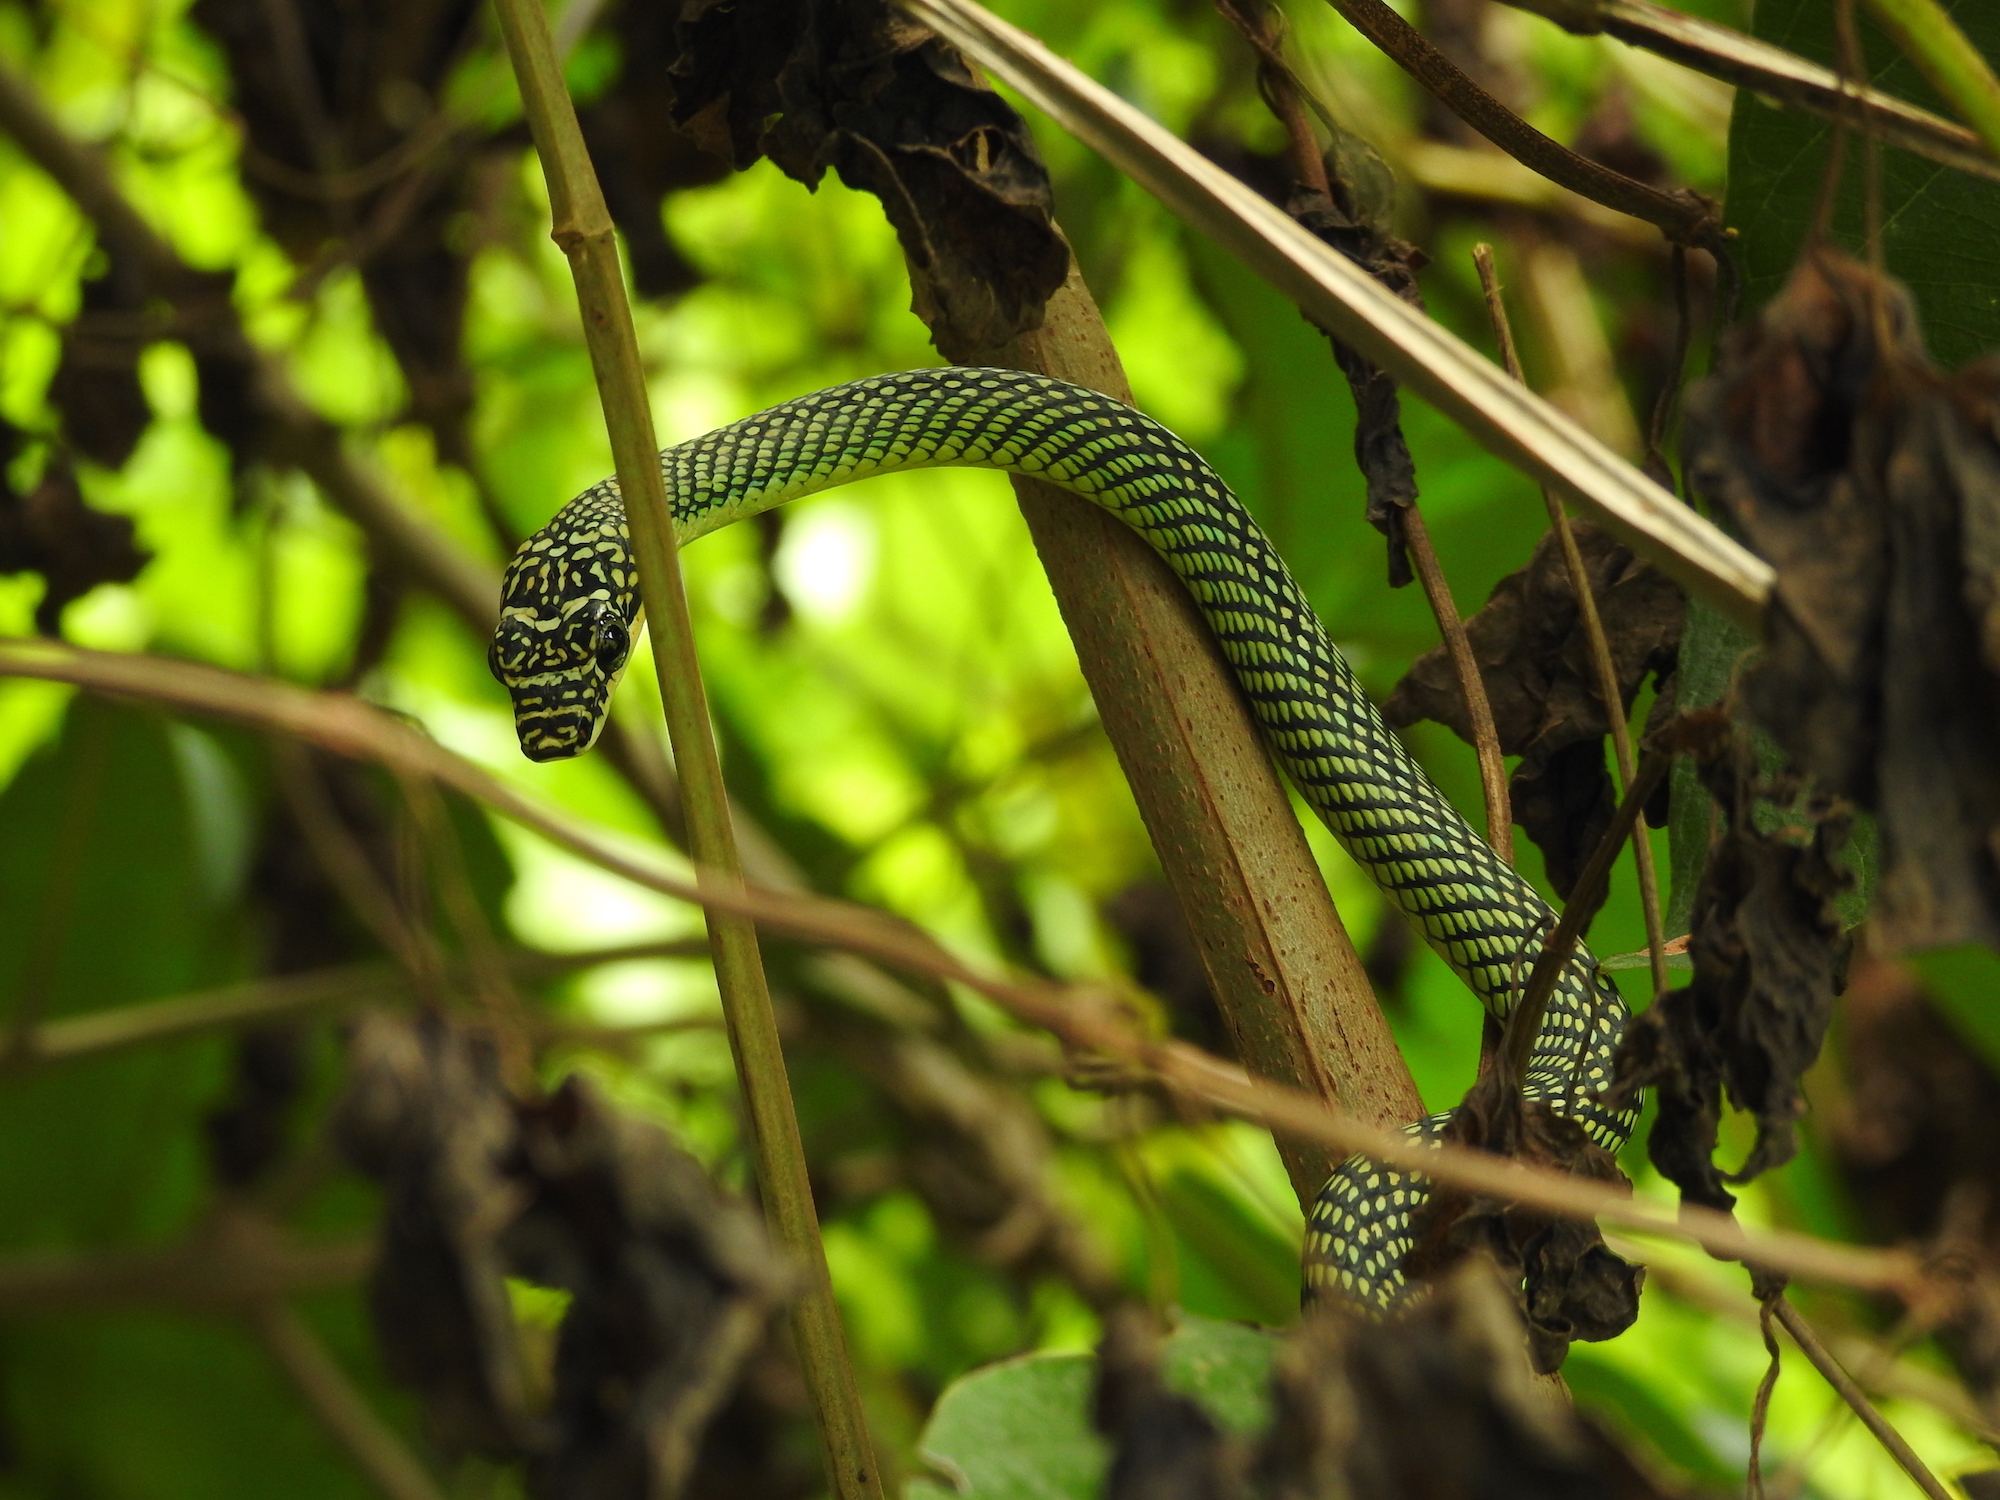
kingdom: Animalia
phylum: Chordata
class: Squamata
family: Colubridae
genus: Chrysopelea
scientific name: Chrysopelea paradisi
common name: Paradise tree snake
